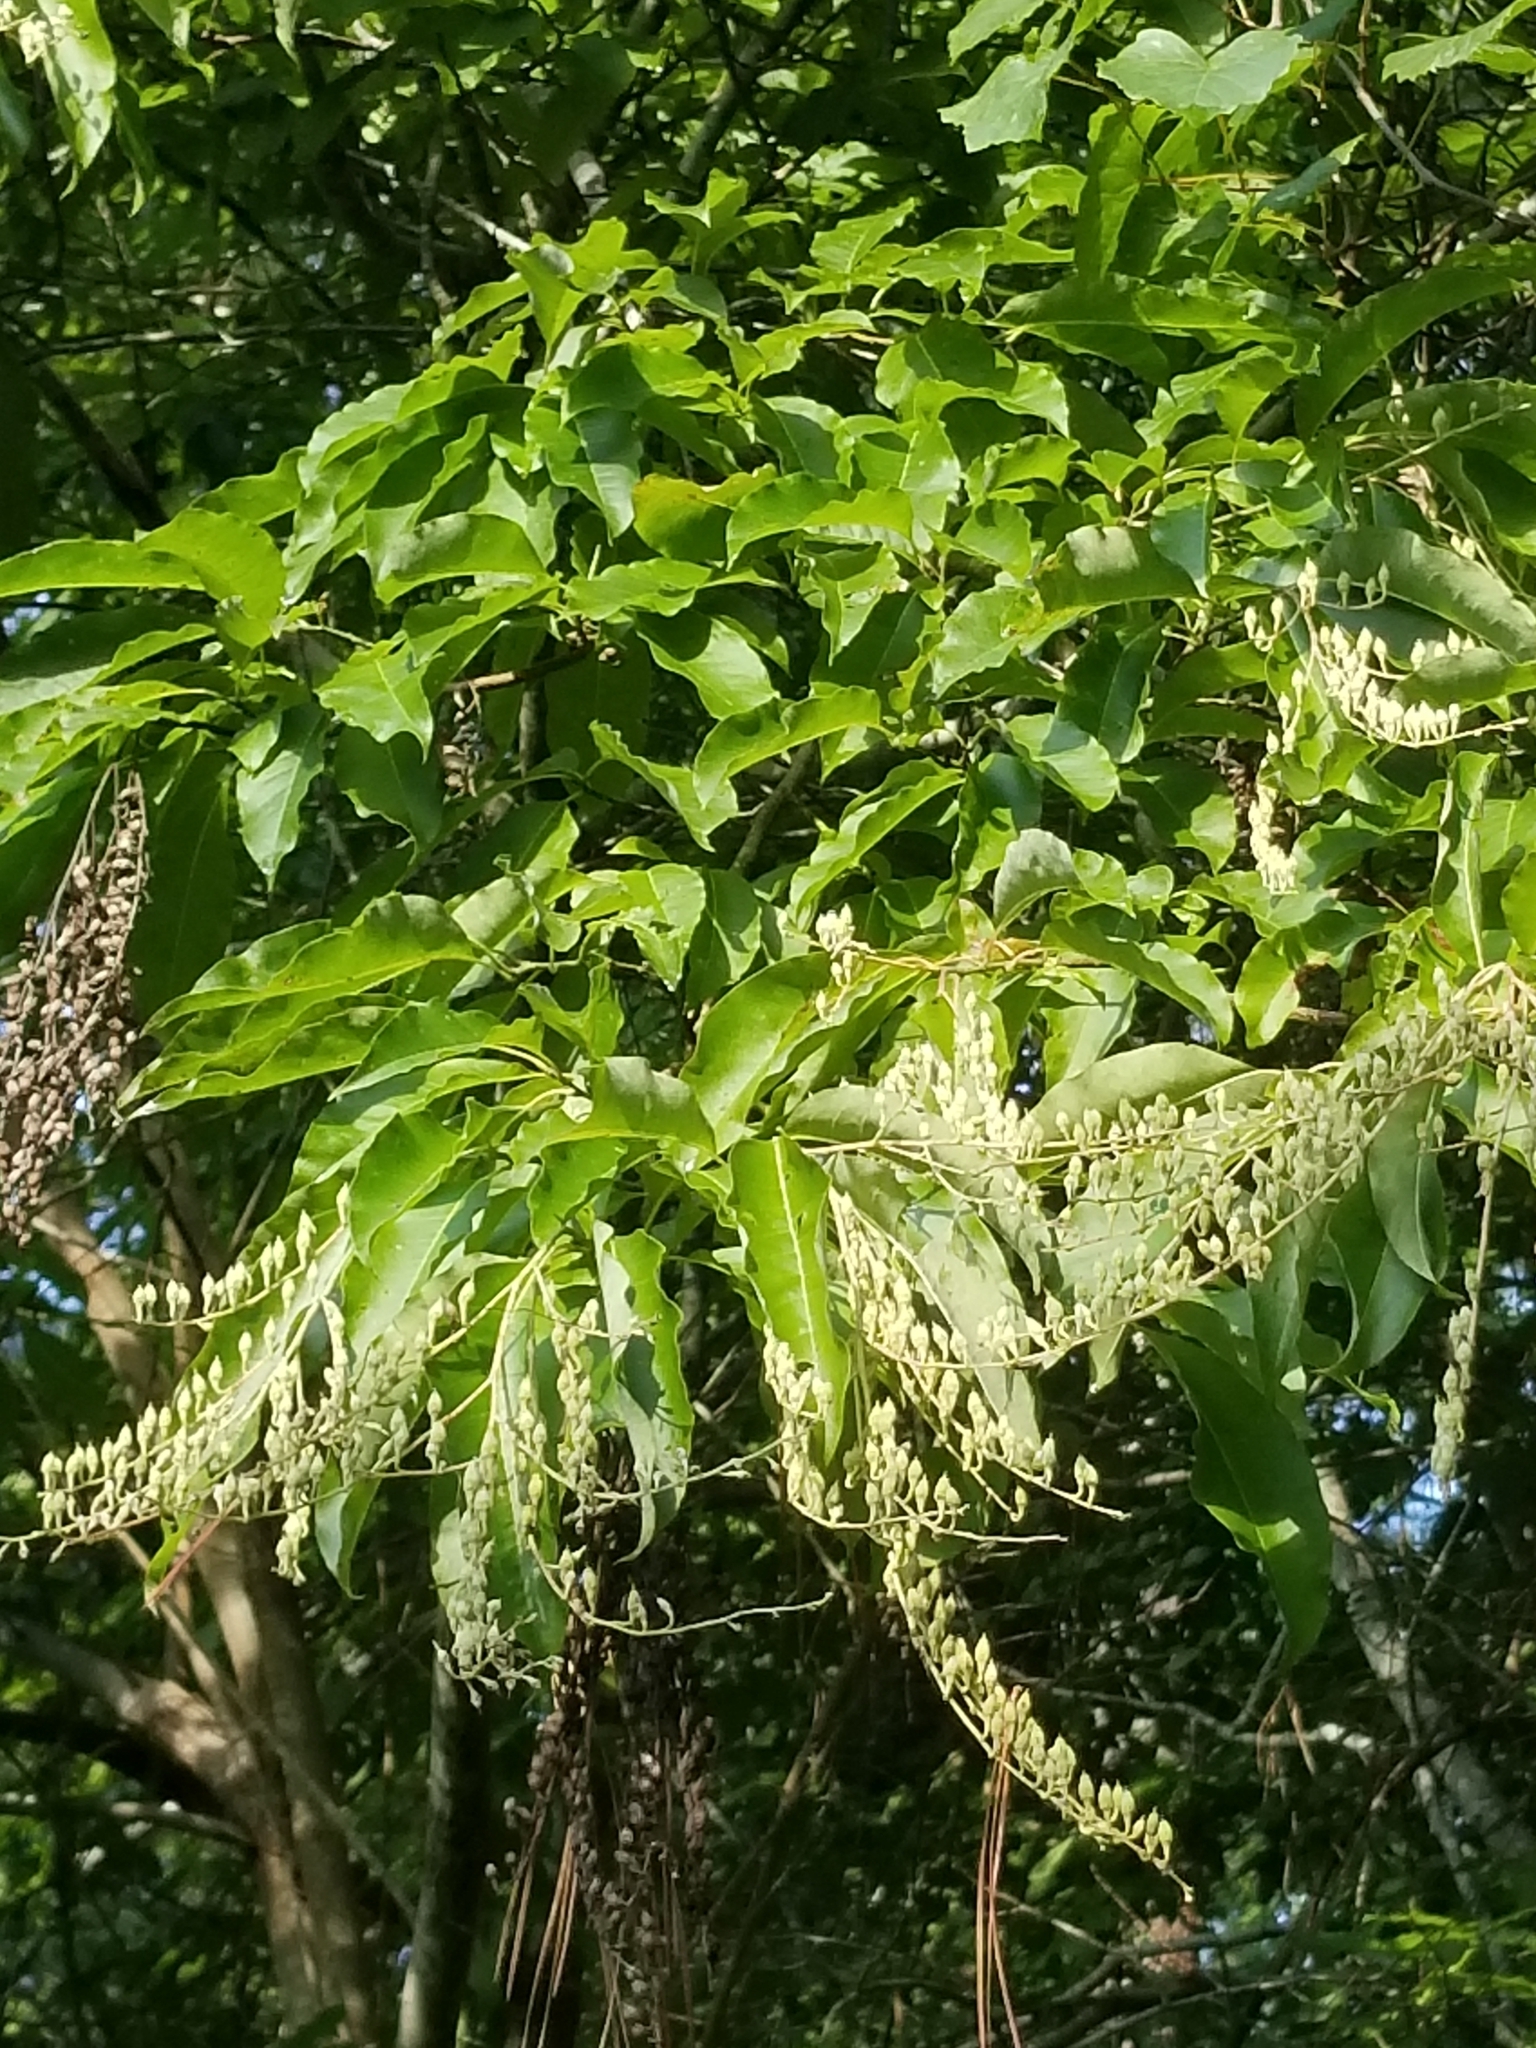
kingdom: Plantae
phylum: Tracheophyta
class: Magnoliopsida
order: Ericales
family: Ericaceae
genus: Oxydendrum
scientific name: Oxydendrum arboreum
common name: Sourwood
